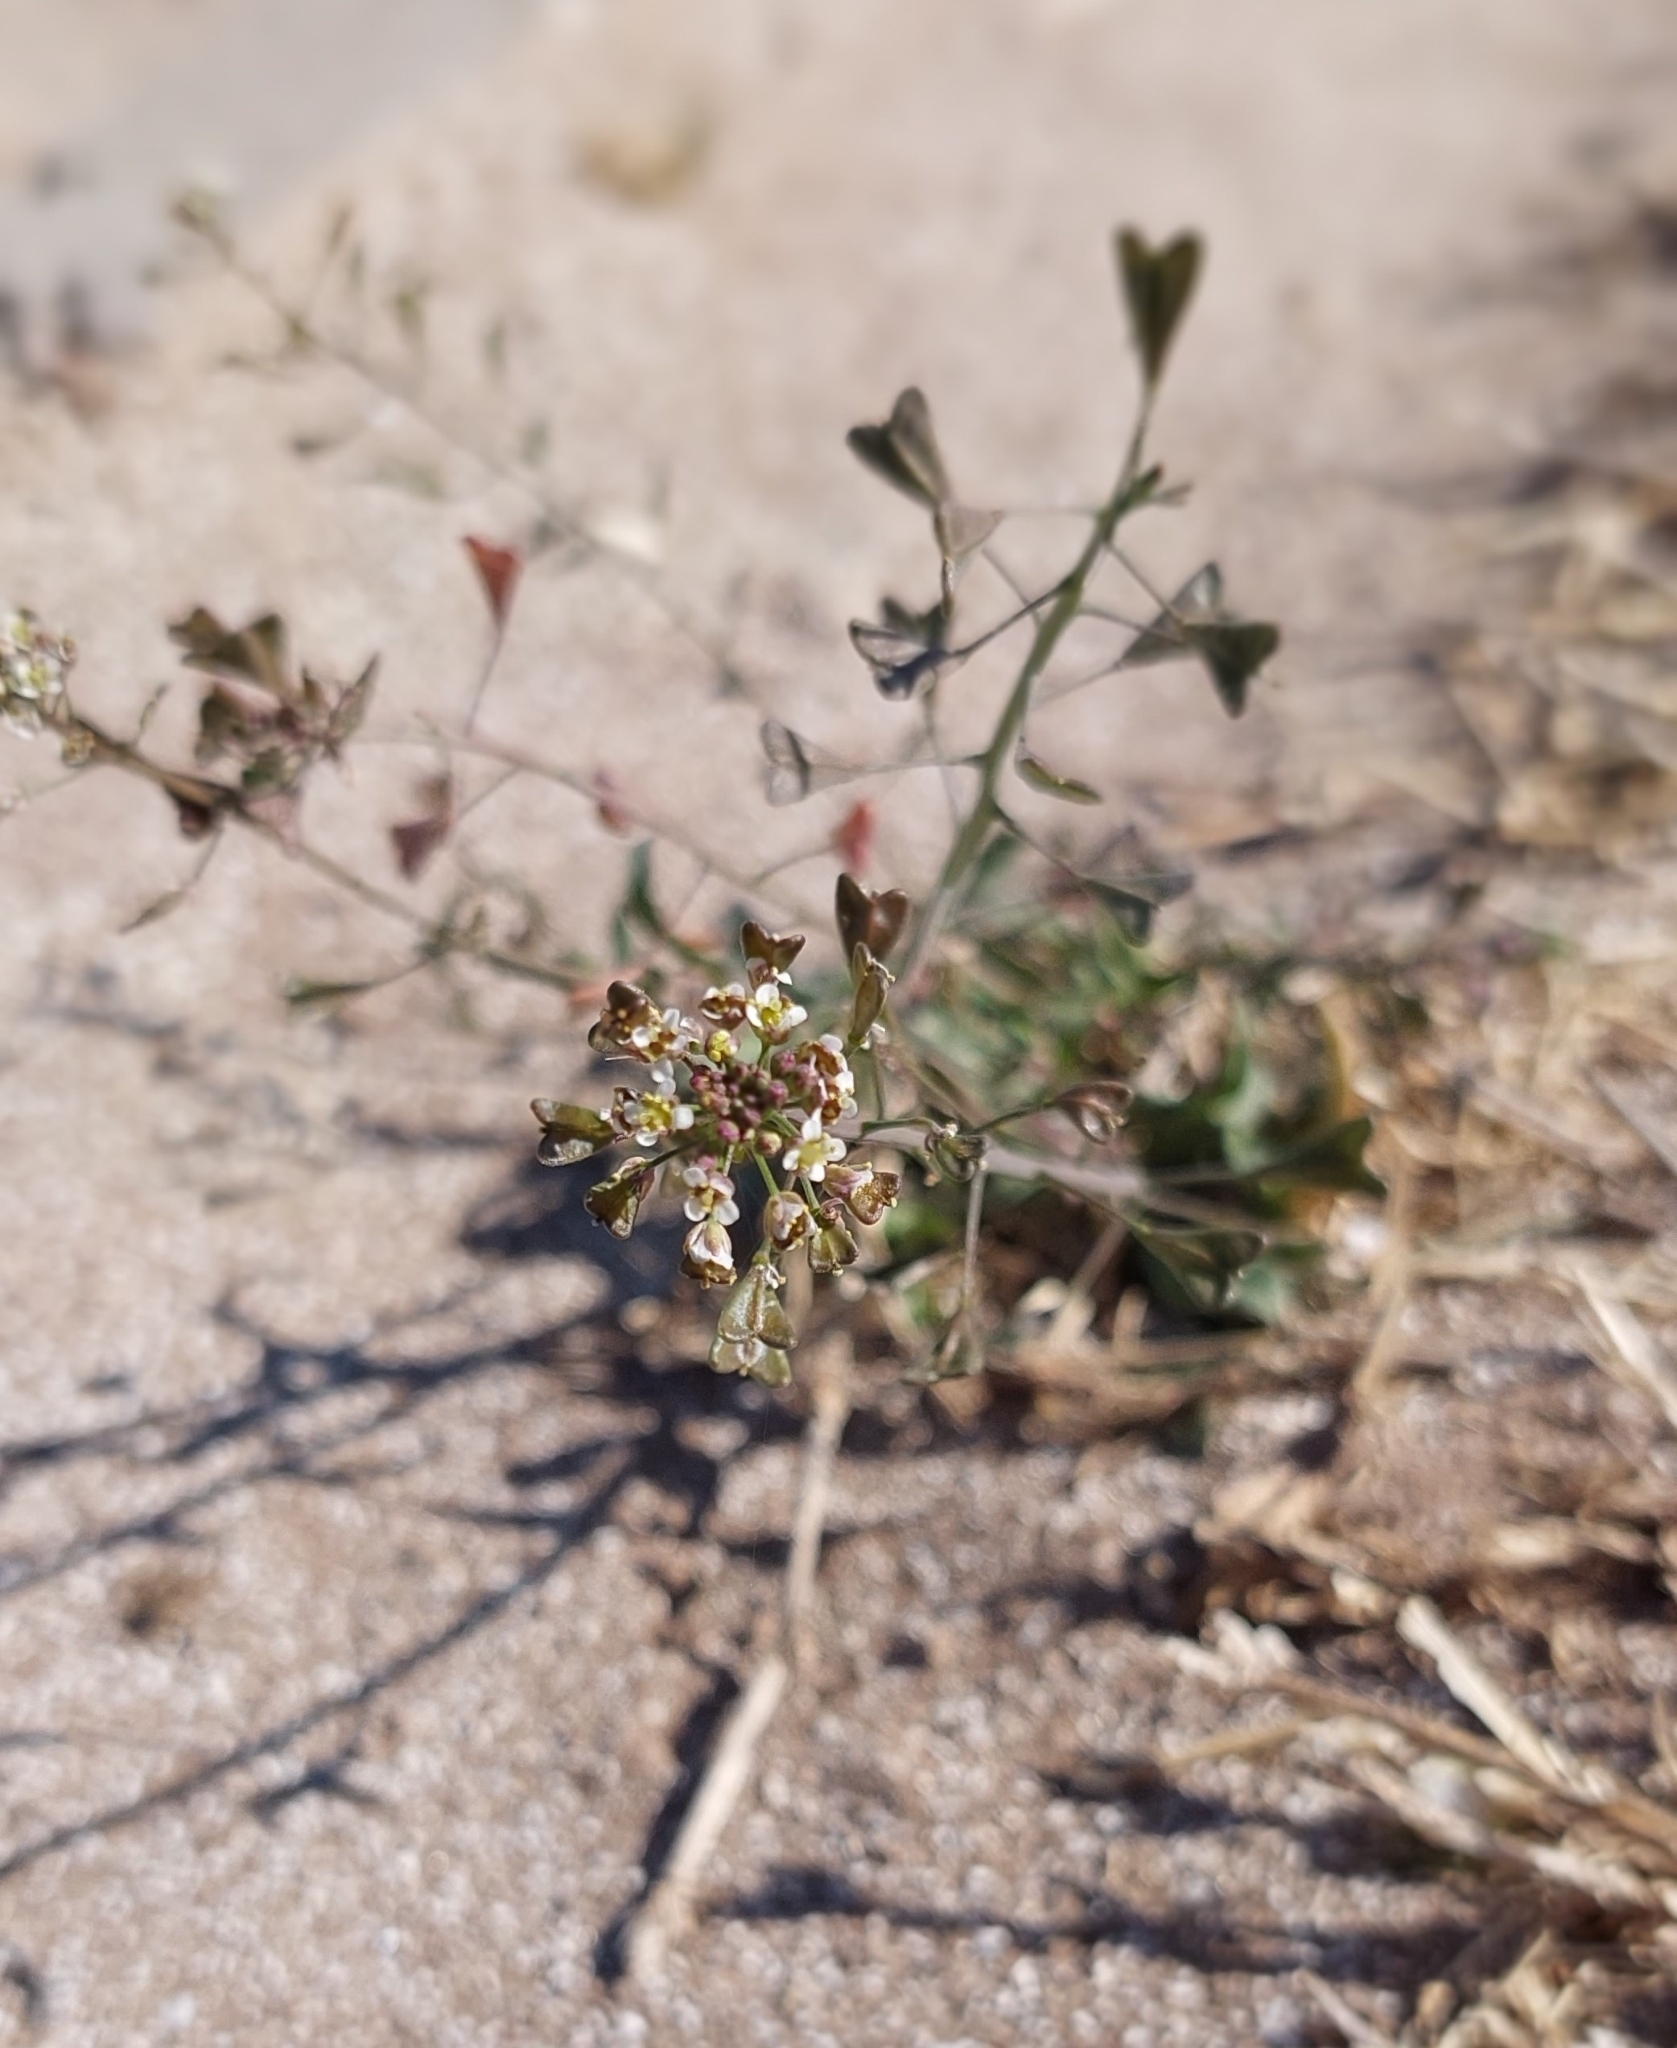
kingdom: Plantae
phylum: Tracheophyta
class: Magnoliopsida
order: Brassicales
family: Brassicaceae
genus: Capsella
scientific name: Capsella bursa-pastoris
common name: Shepherd's purse
